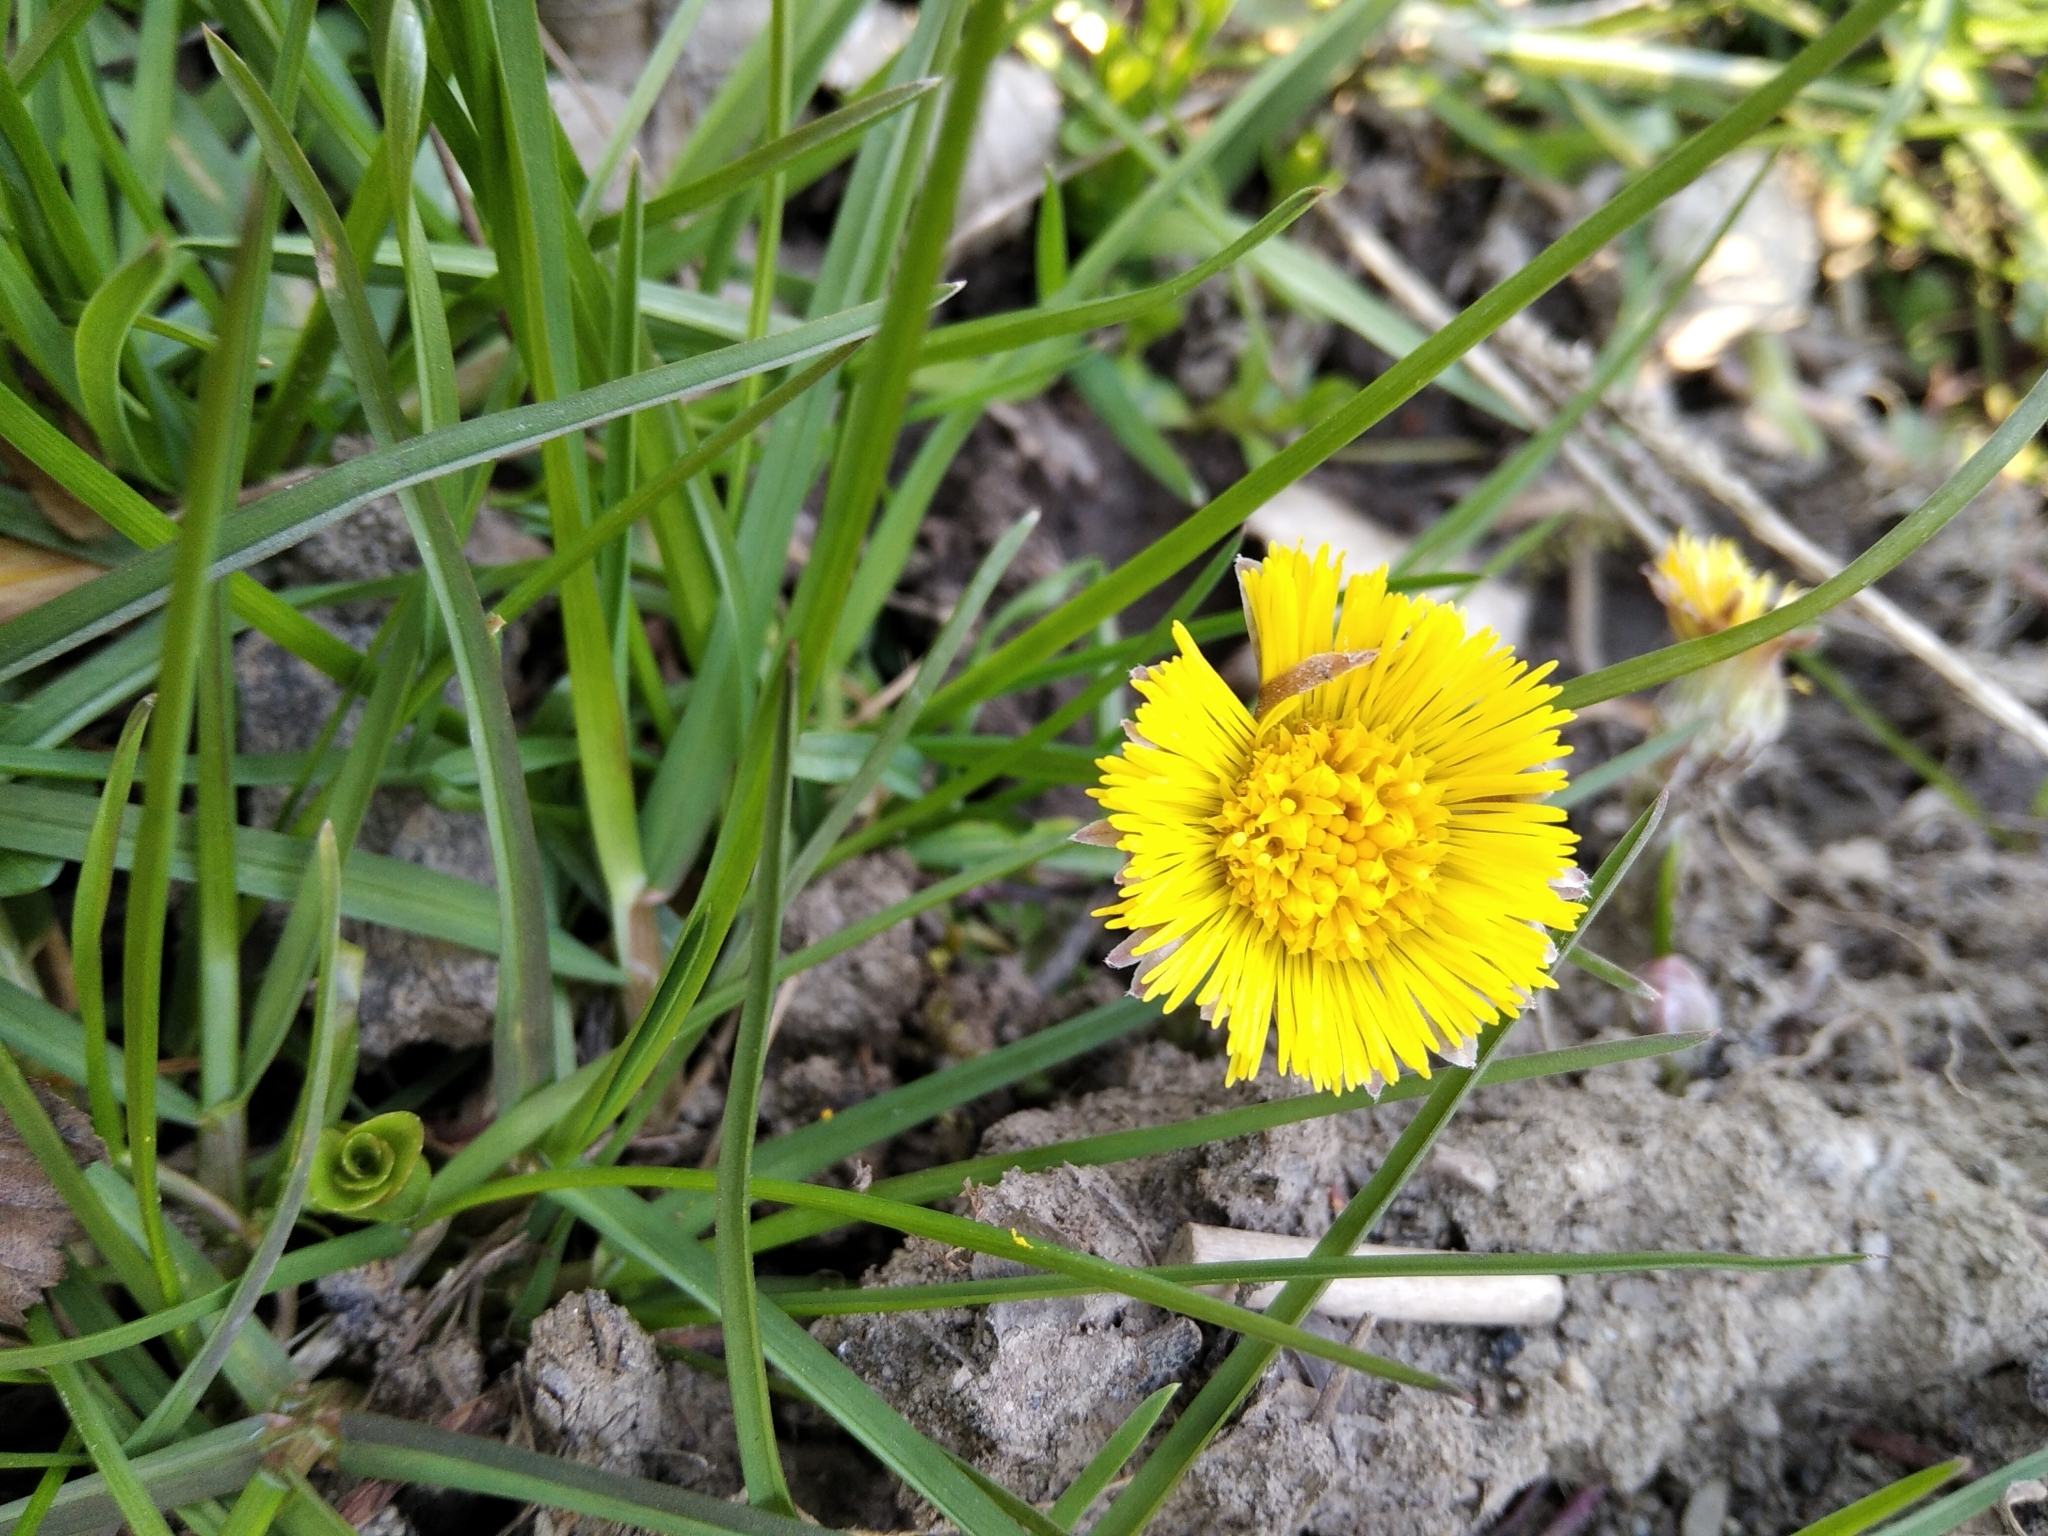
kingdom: Plantae
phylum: Tracheophyta
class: Magnoliopsida
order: Asterales
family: Asteraceae
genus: Tussilago
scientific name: Tussilago farfara
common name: Coltsfoot
